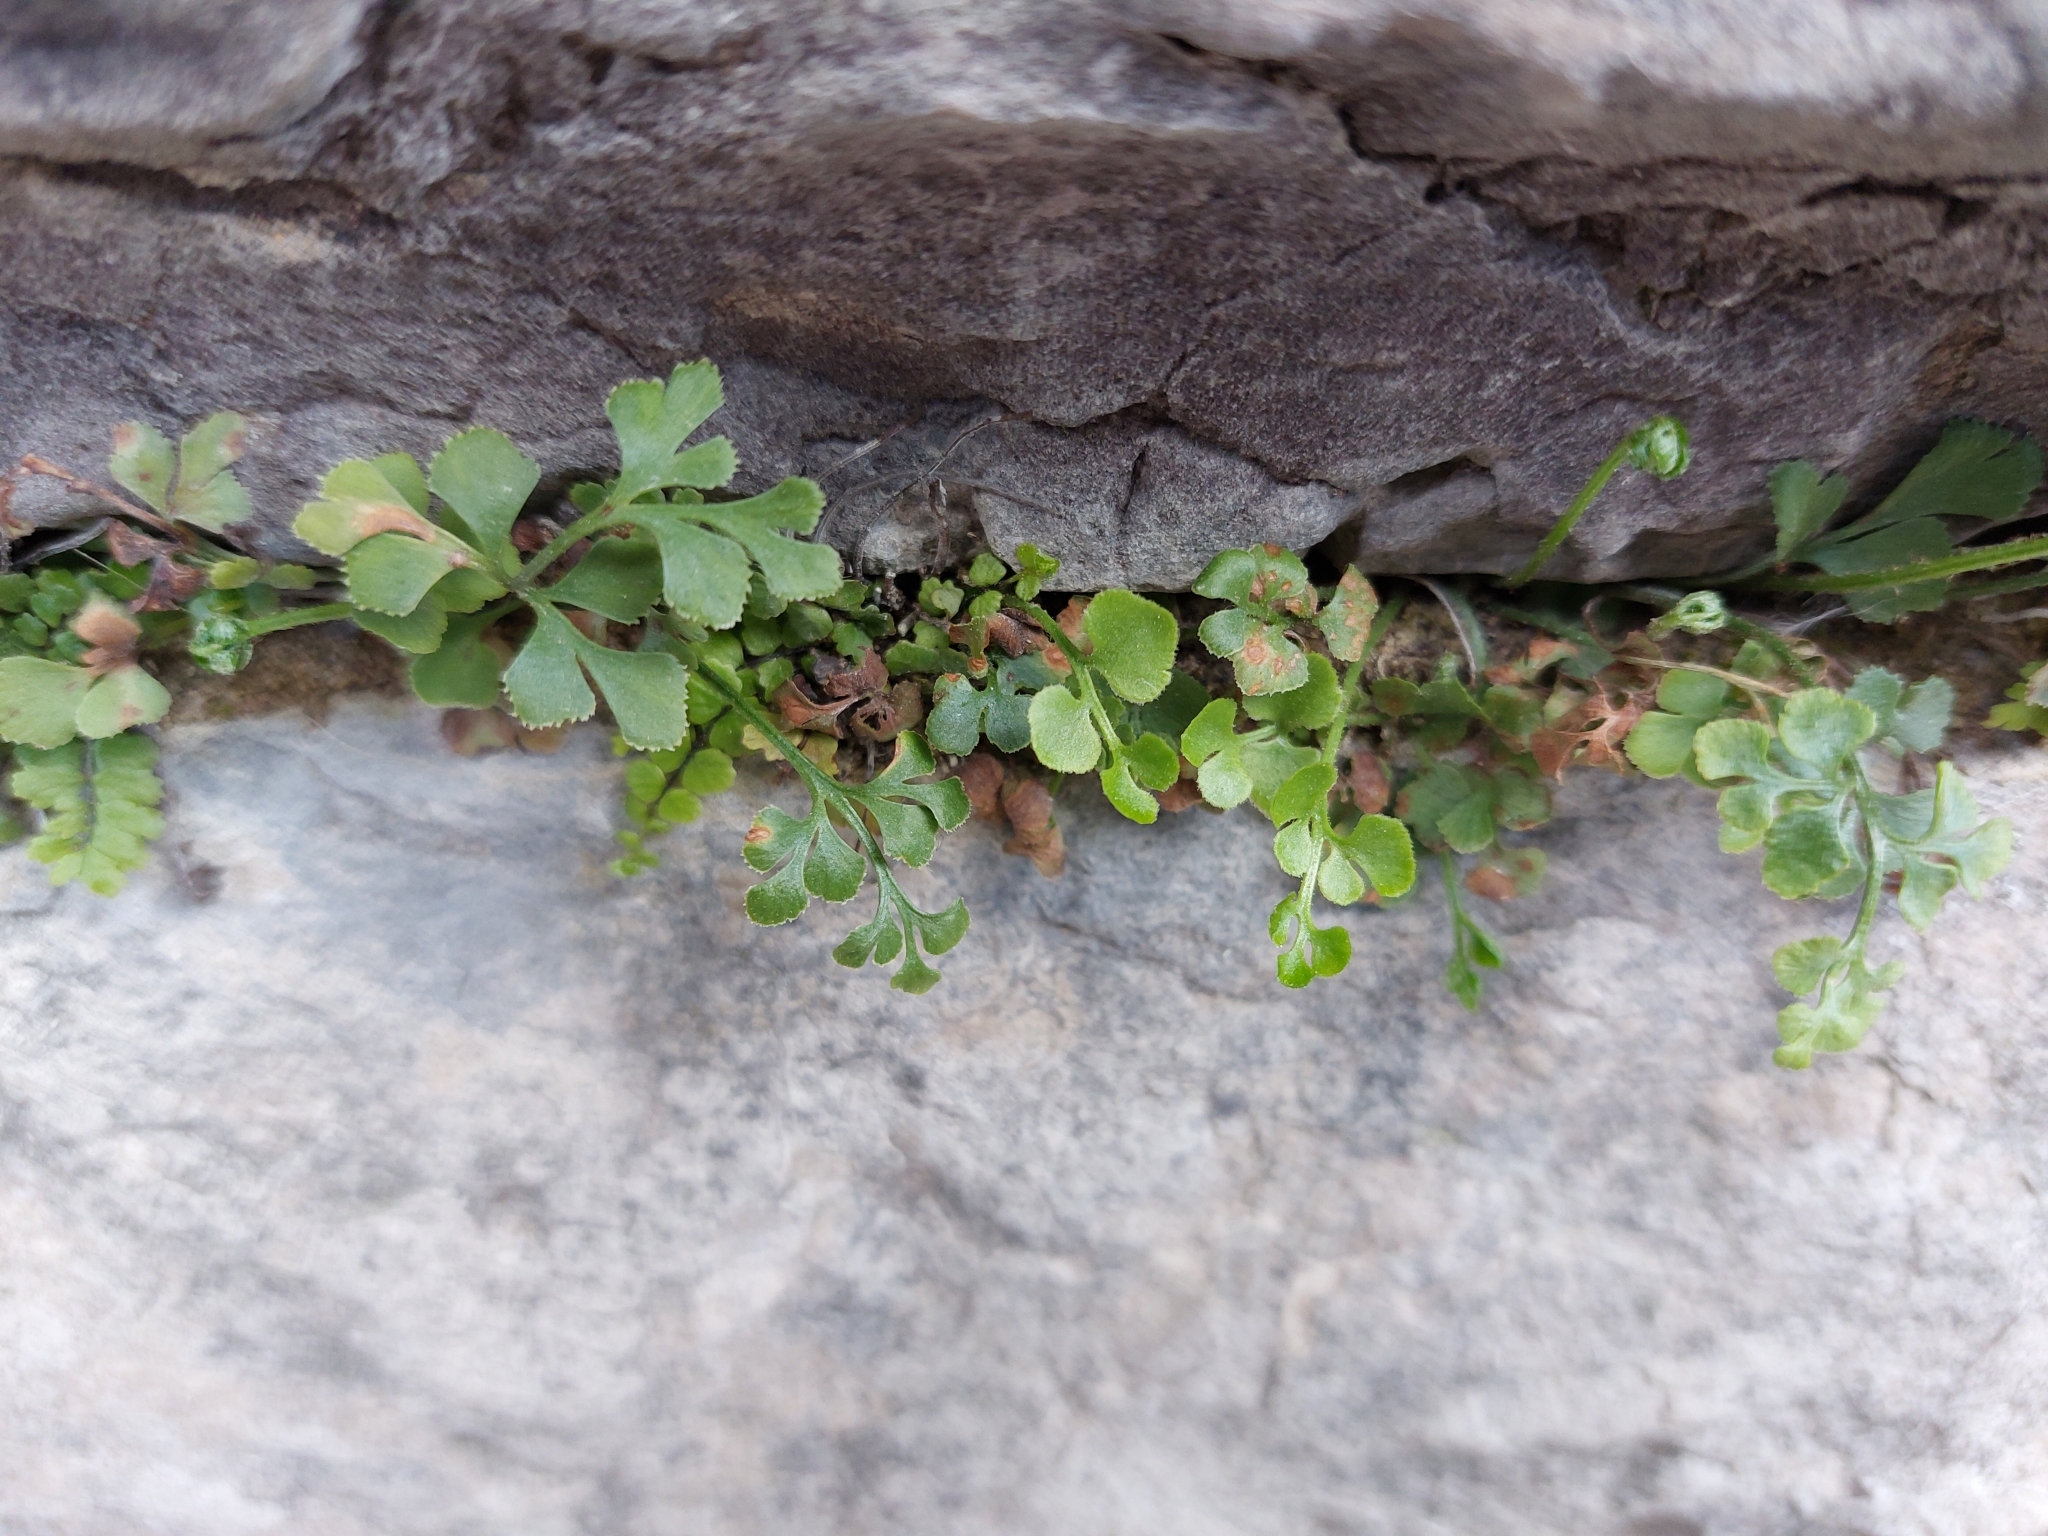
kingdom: Plantae
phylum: Tracheophyta
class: Polypodiopsida
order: Polypodiales
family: Aspleniaceae
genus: Asplenium
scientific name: Asplenium ruta-muraria
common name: Wall-rue
